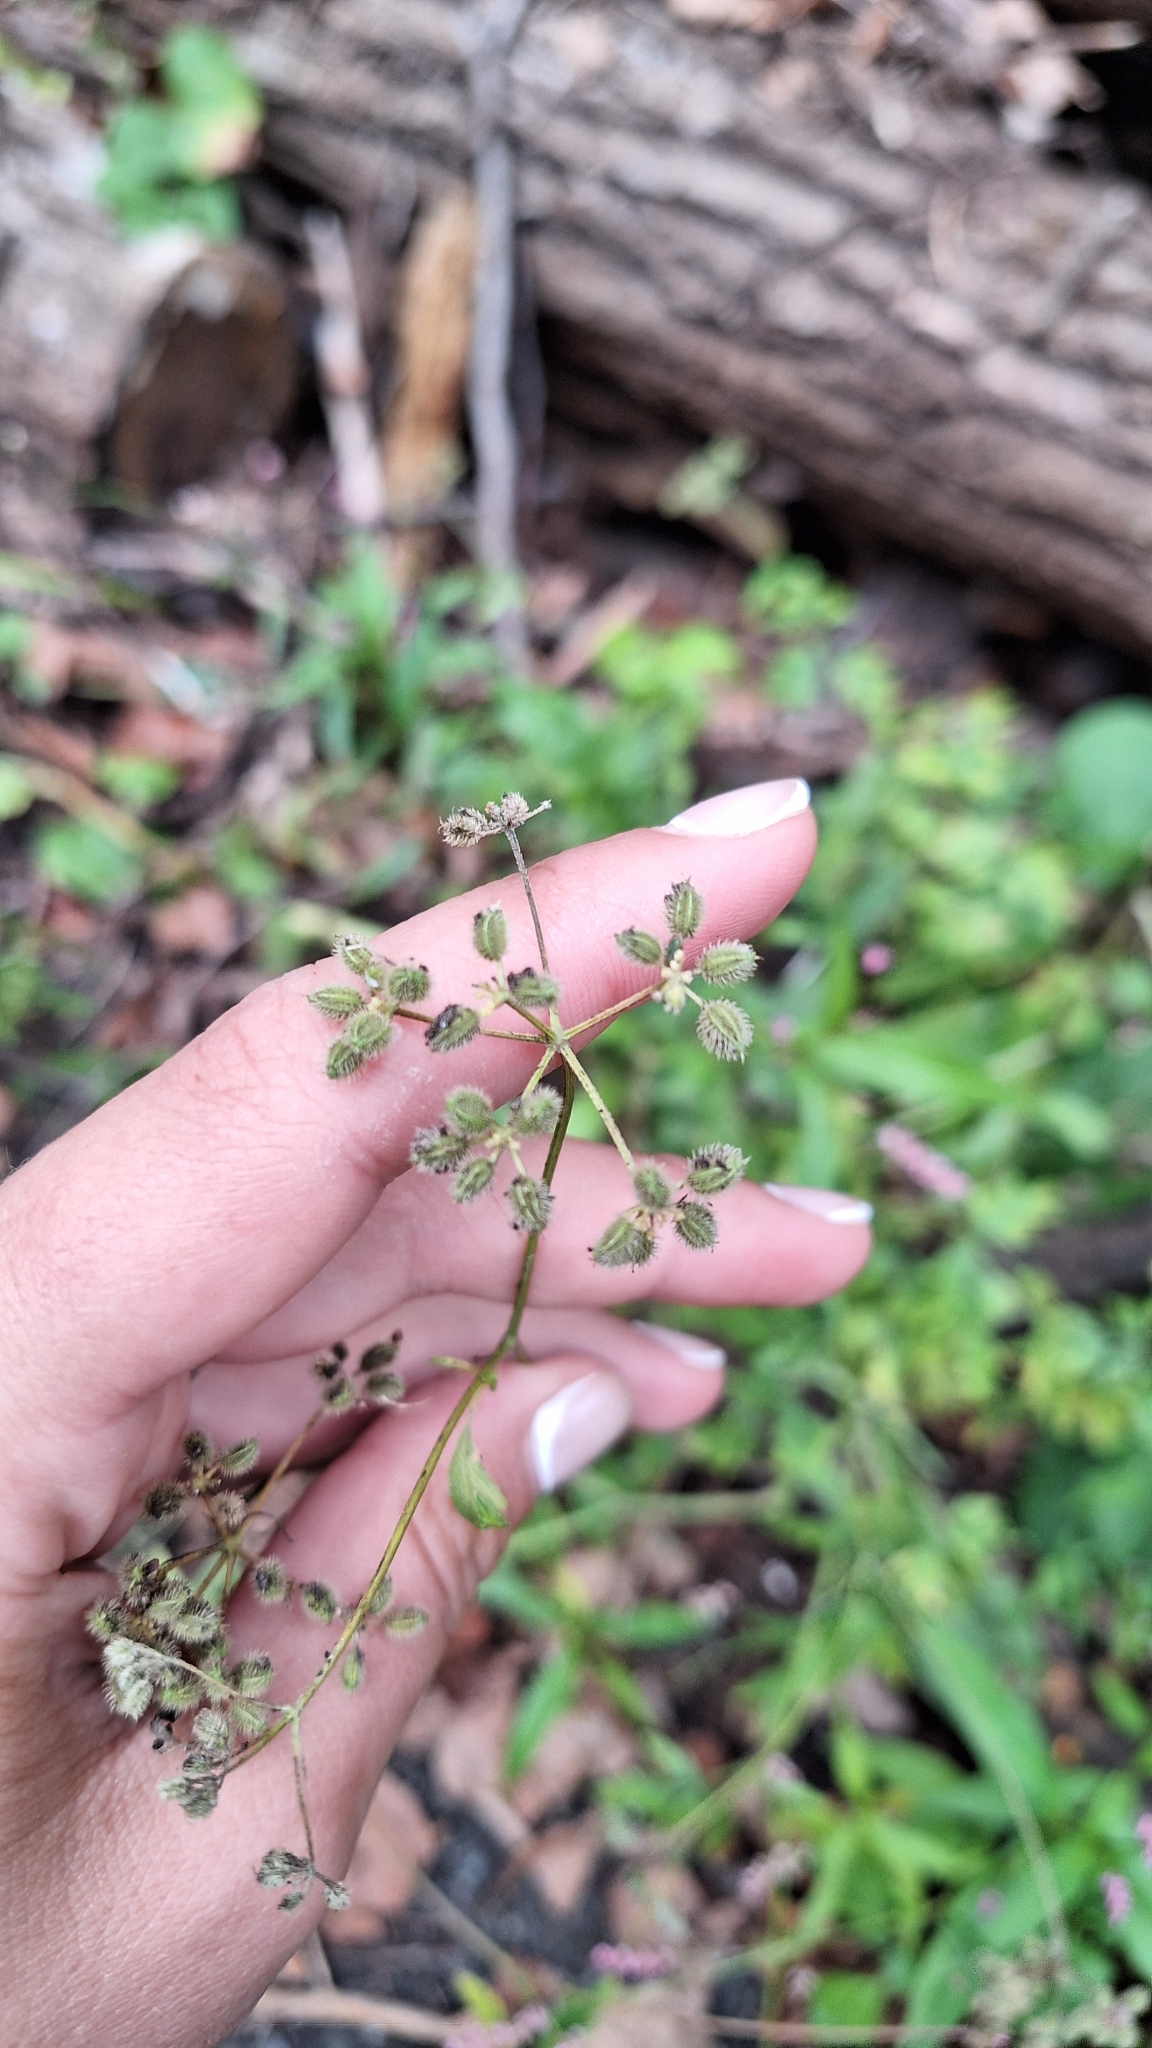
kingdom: Plantae
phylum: Tracheophyta
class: Magnoliopsida
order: Apiales
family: Apiaceae
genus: Torilis
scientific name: Torilis japonica
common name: Upright hedge-parsley
